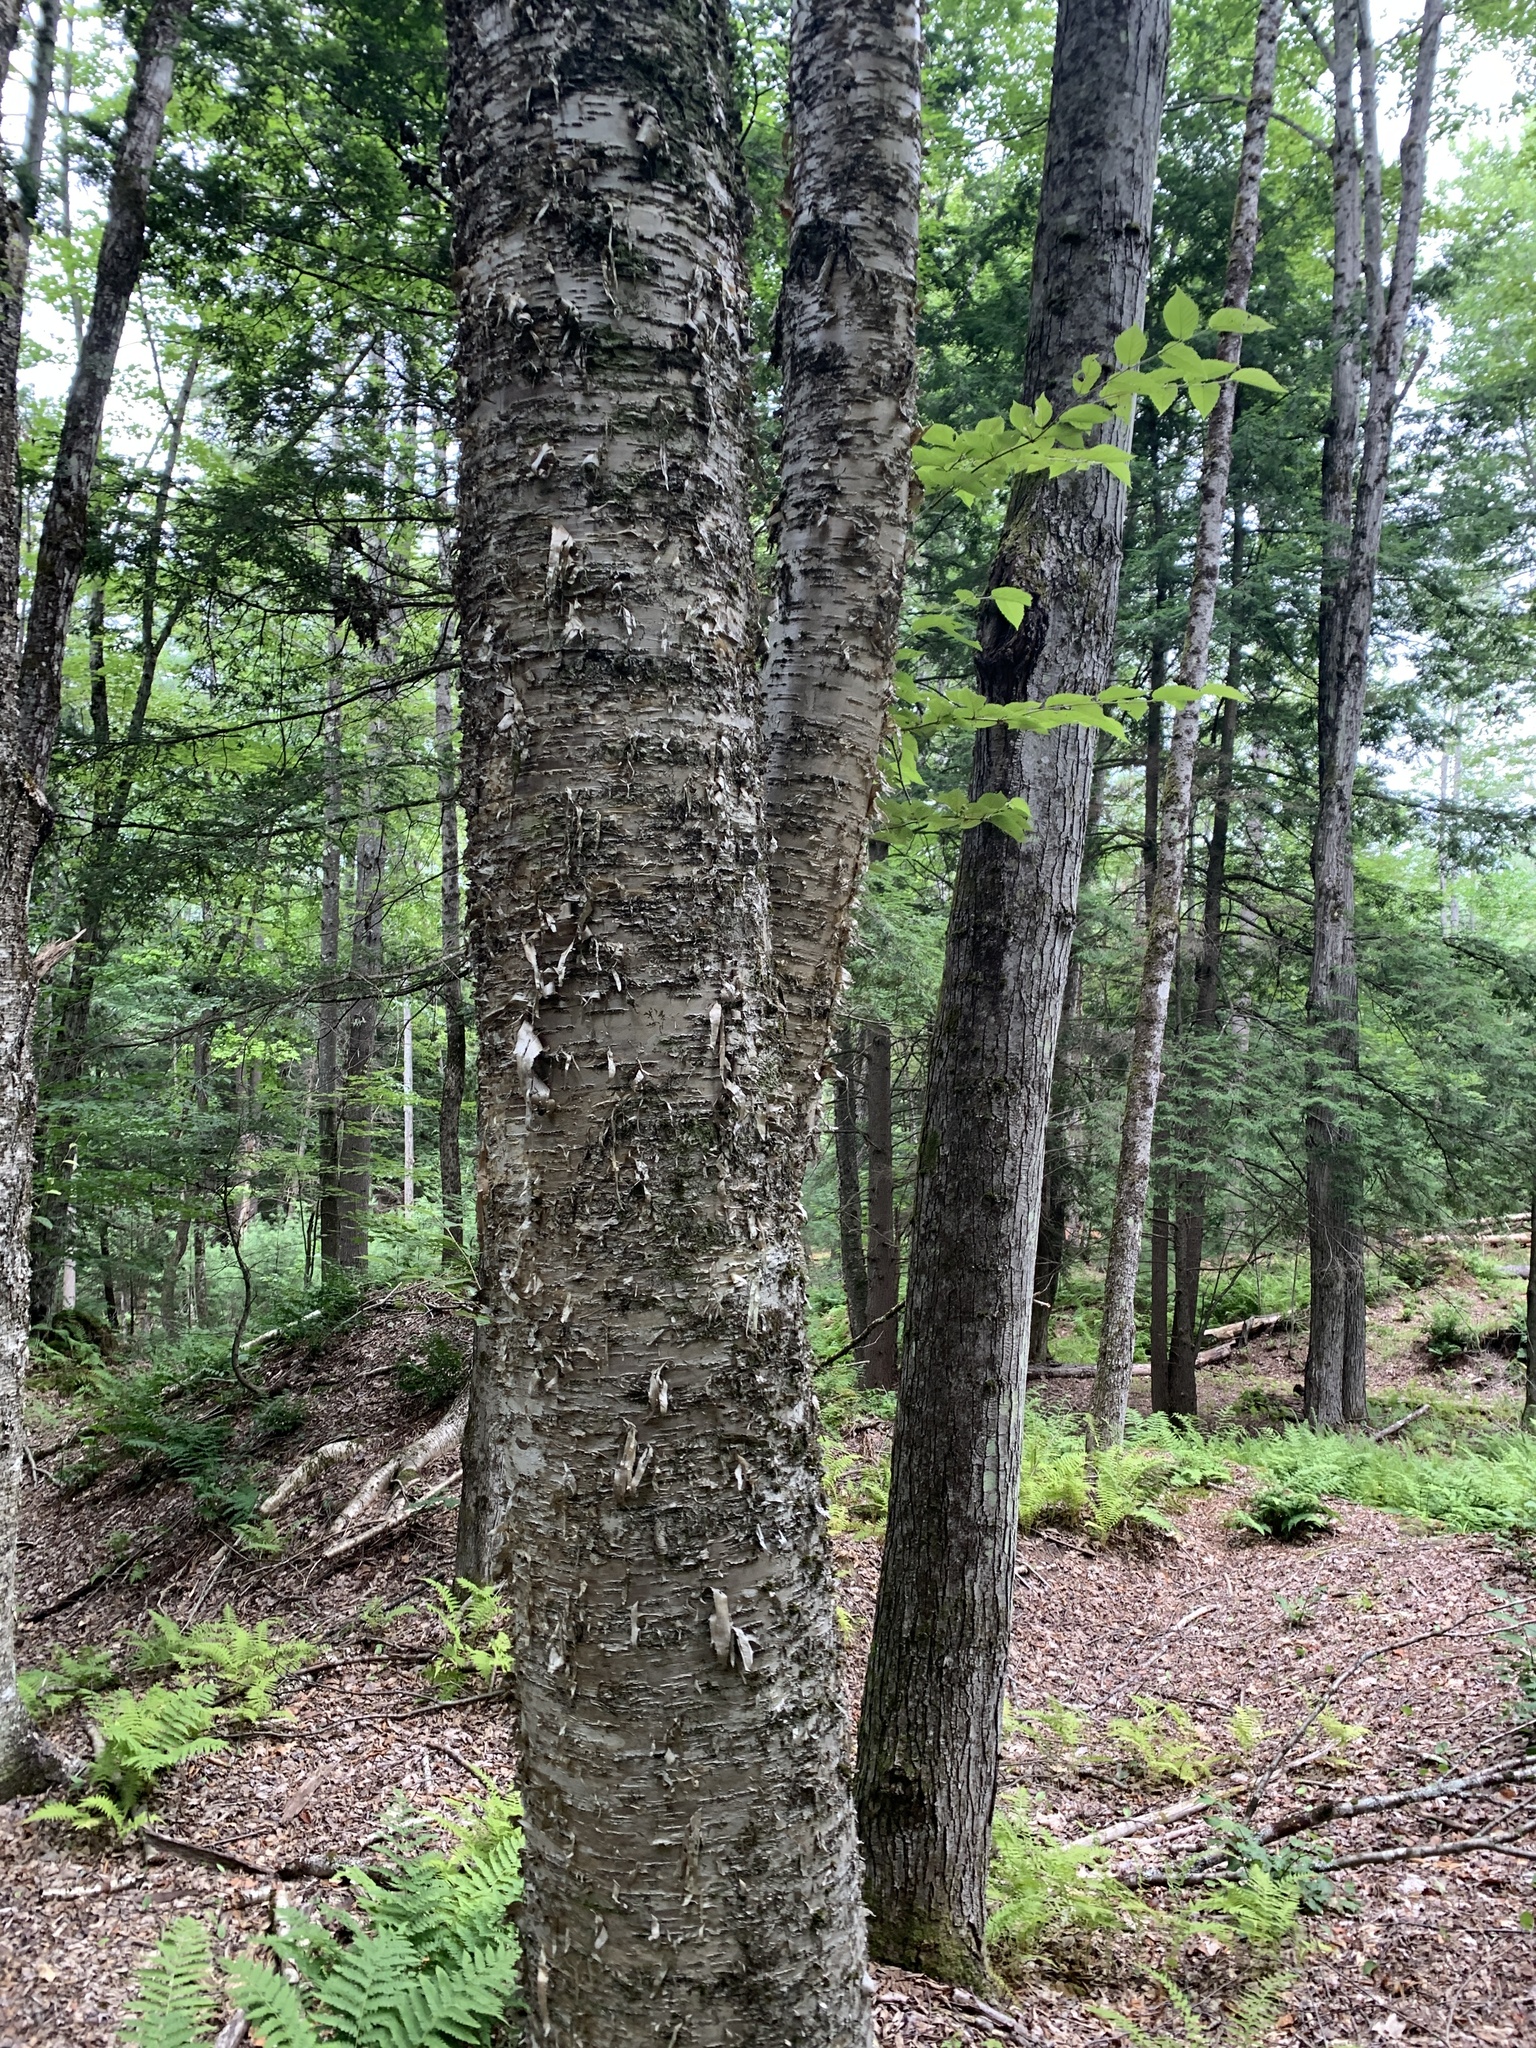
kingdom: Plantae
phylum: Tracheophyta
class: Magnoliopsida
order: Fagales
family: Betulaceae
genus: Betula
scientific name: Betula alleghaniensis
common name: Yellow birch
